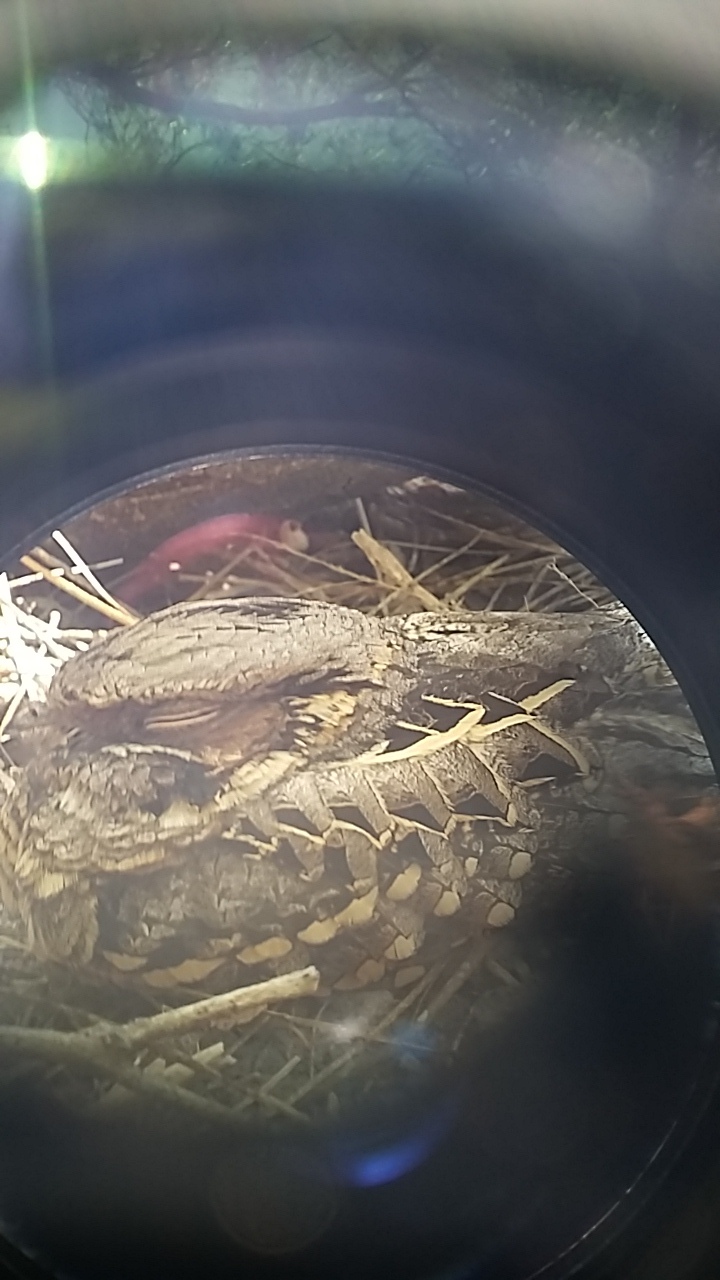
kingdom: Animalia
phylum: Chordata
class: Aves
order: Caprimulgiformes
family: Caprimulgidae
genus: Nyctidromus
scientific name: Nyctidromus albicollis
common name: Pauraque
